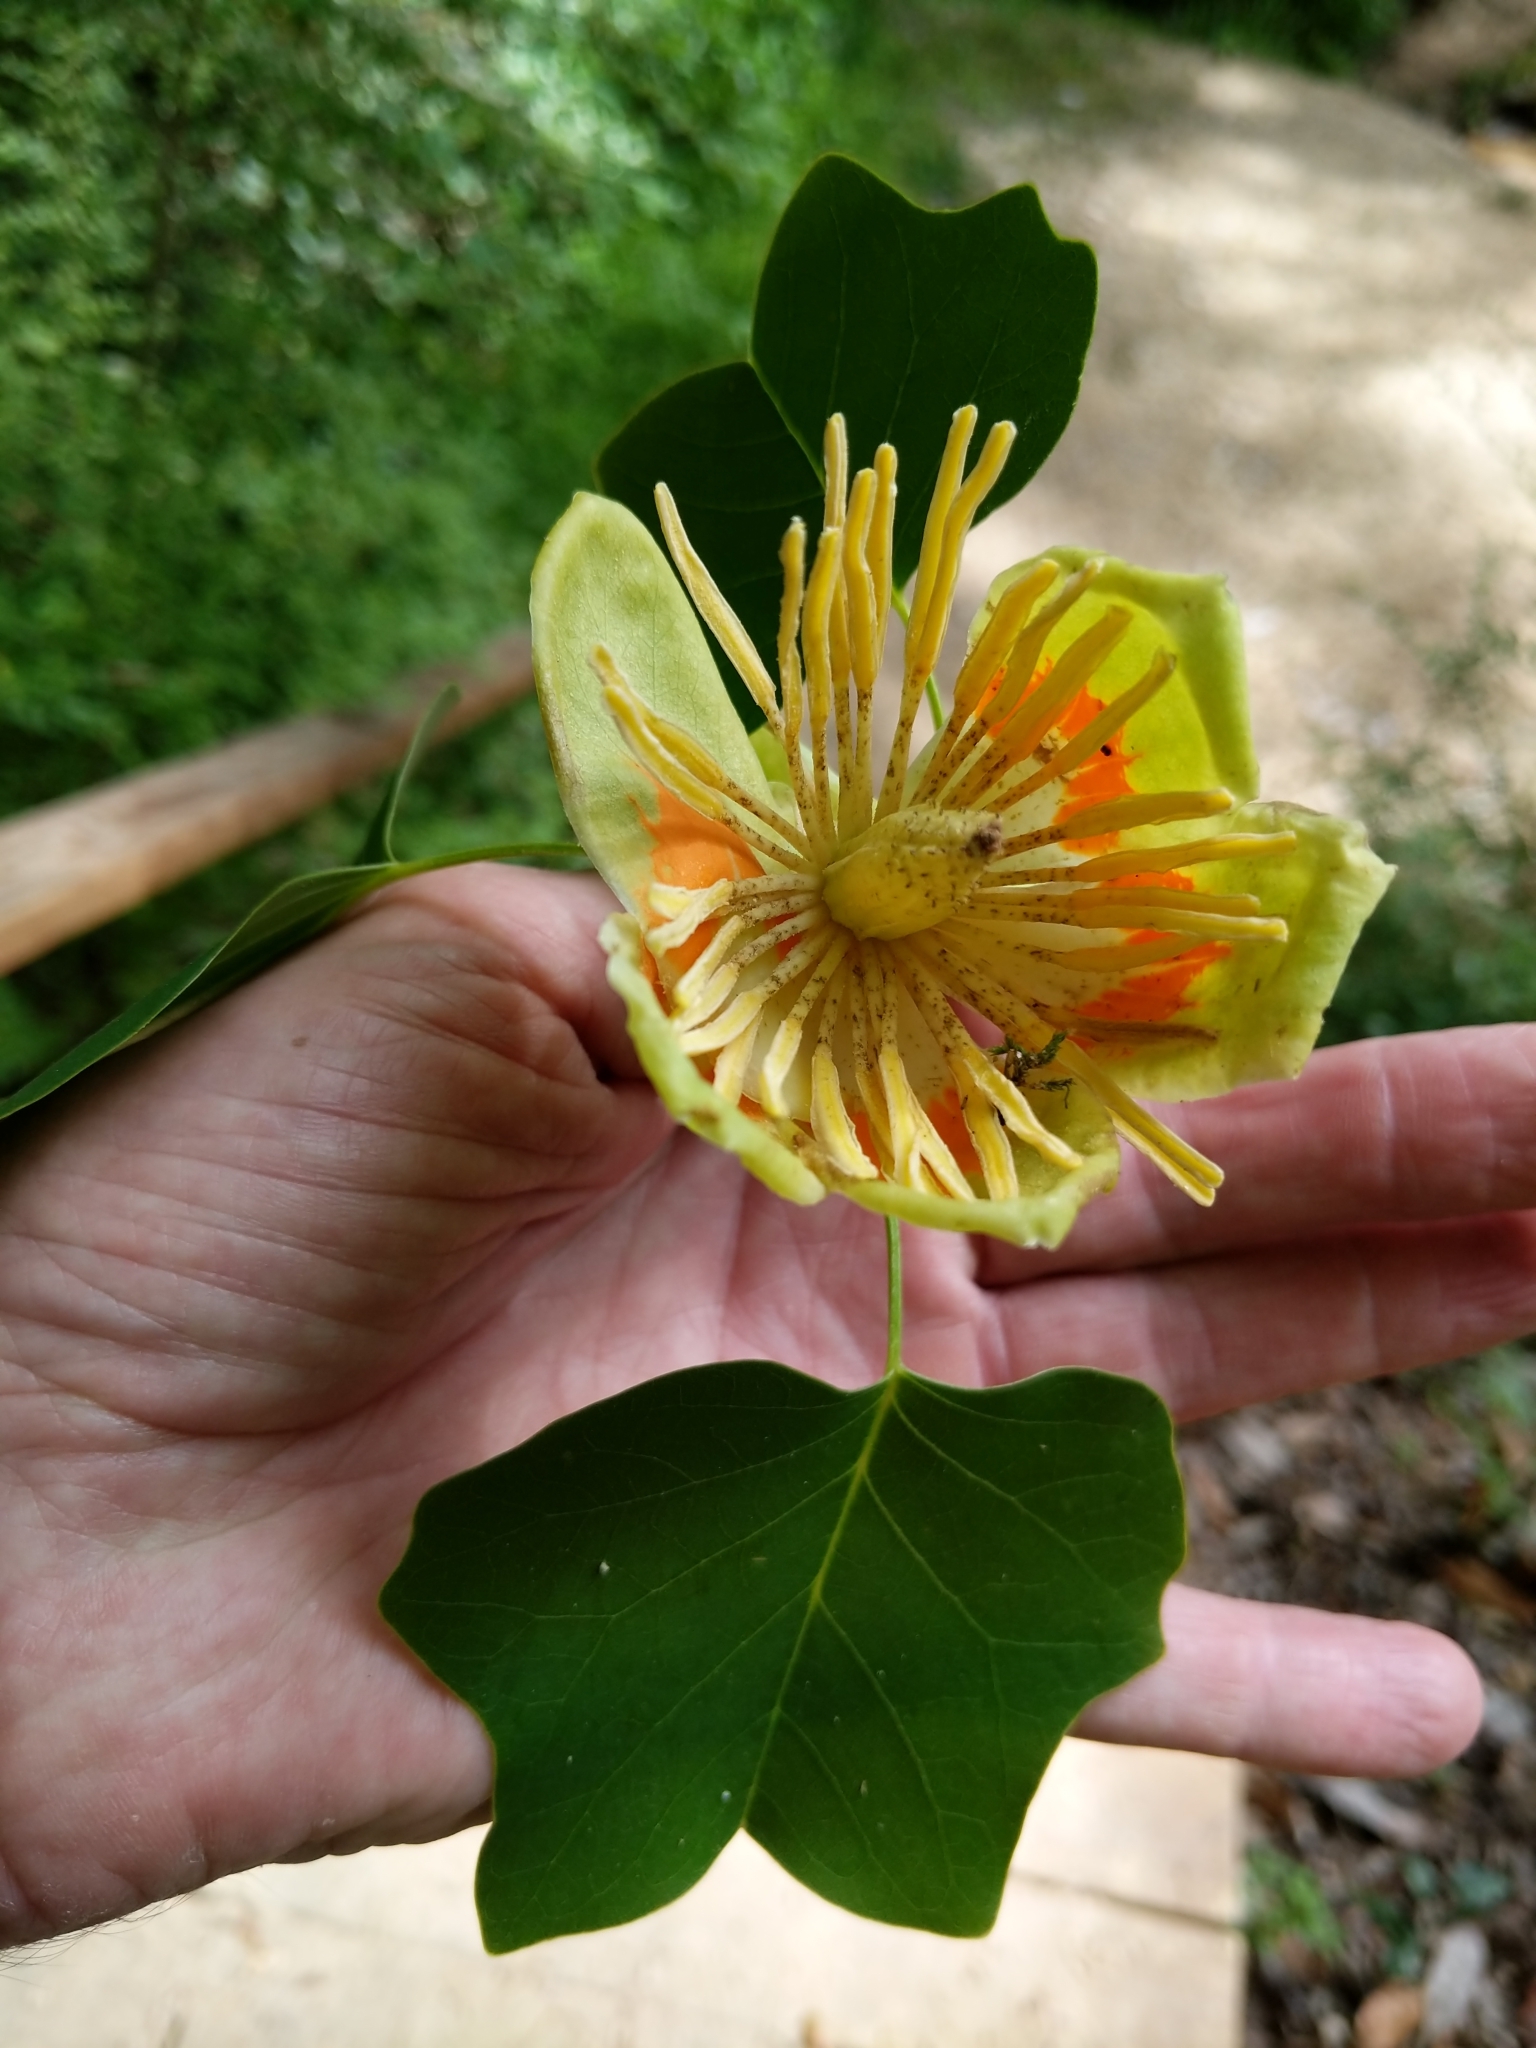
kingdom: Plantae
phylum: Tracheophyta
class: Magnoliopsida
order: Magnoliales
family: Magnoliaceae
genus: Liriodendron
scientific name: Liriodendron tulipifera
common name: Tulip tree
